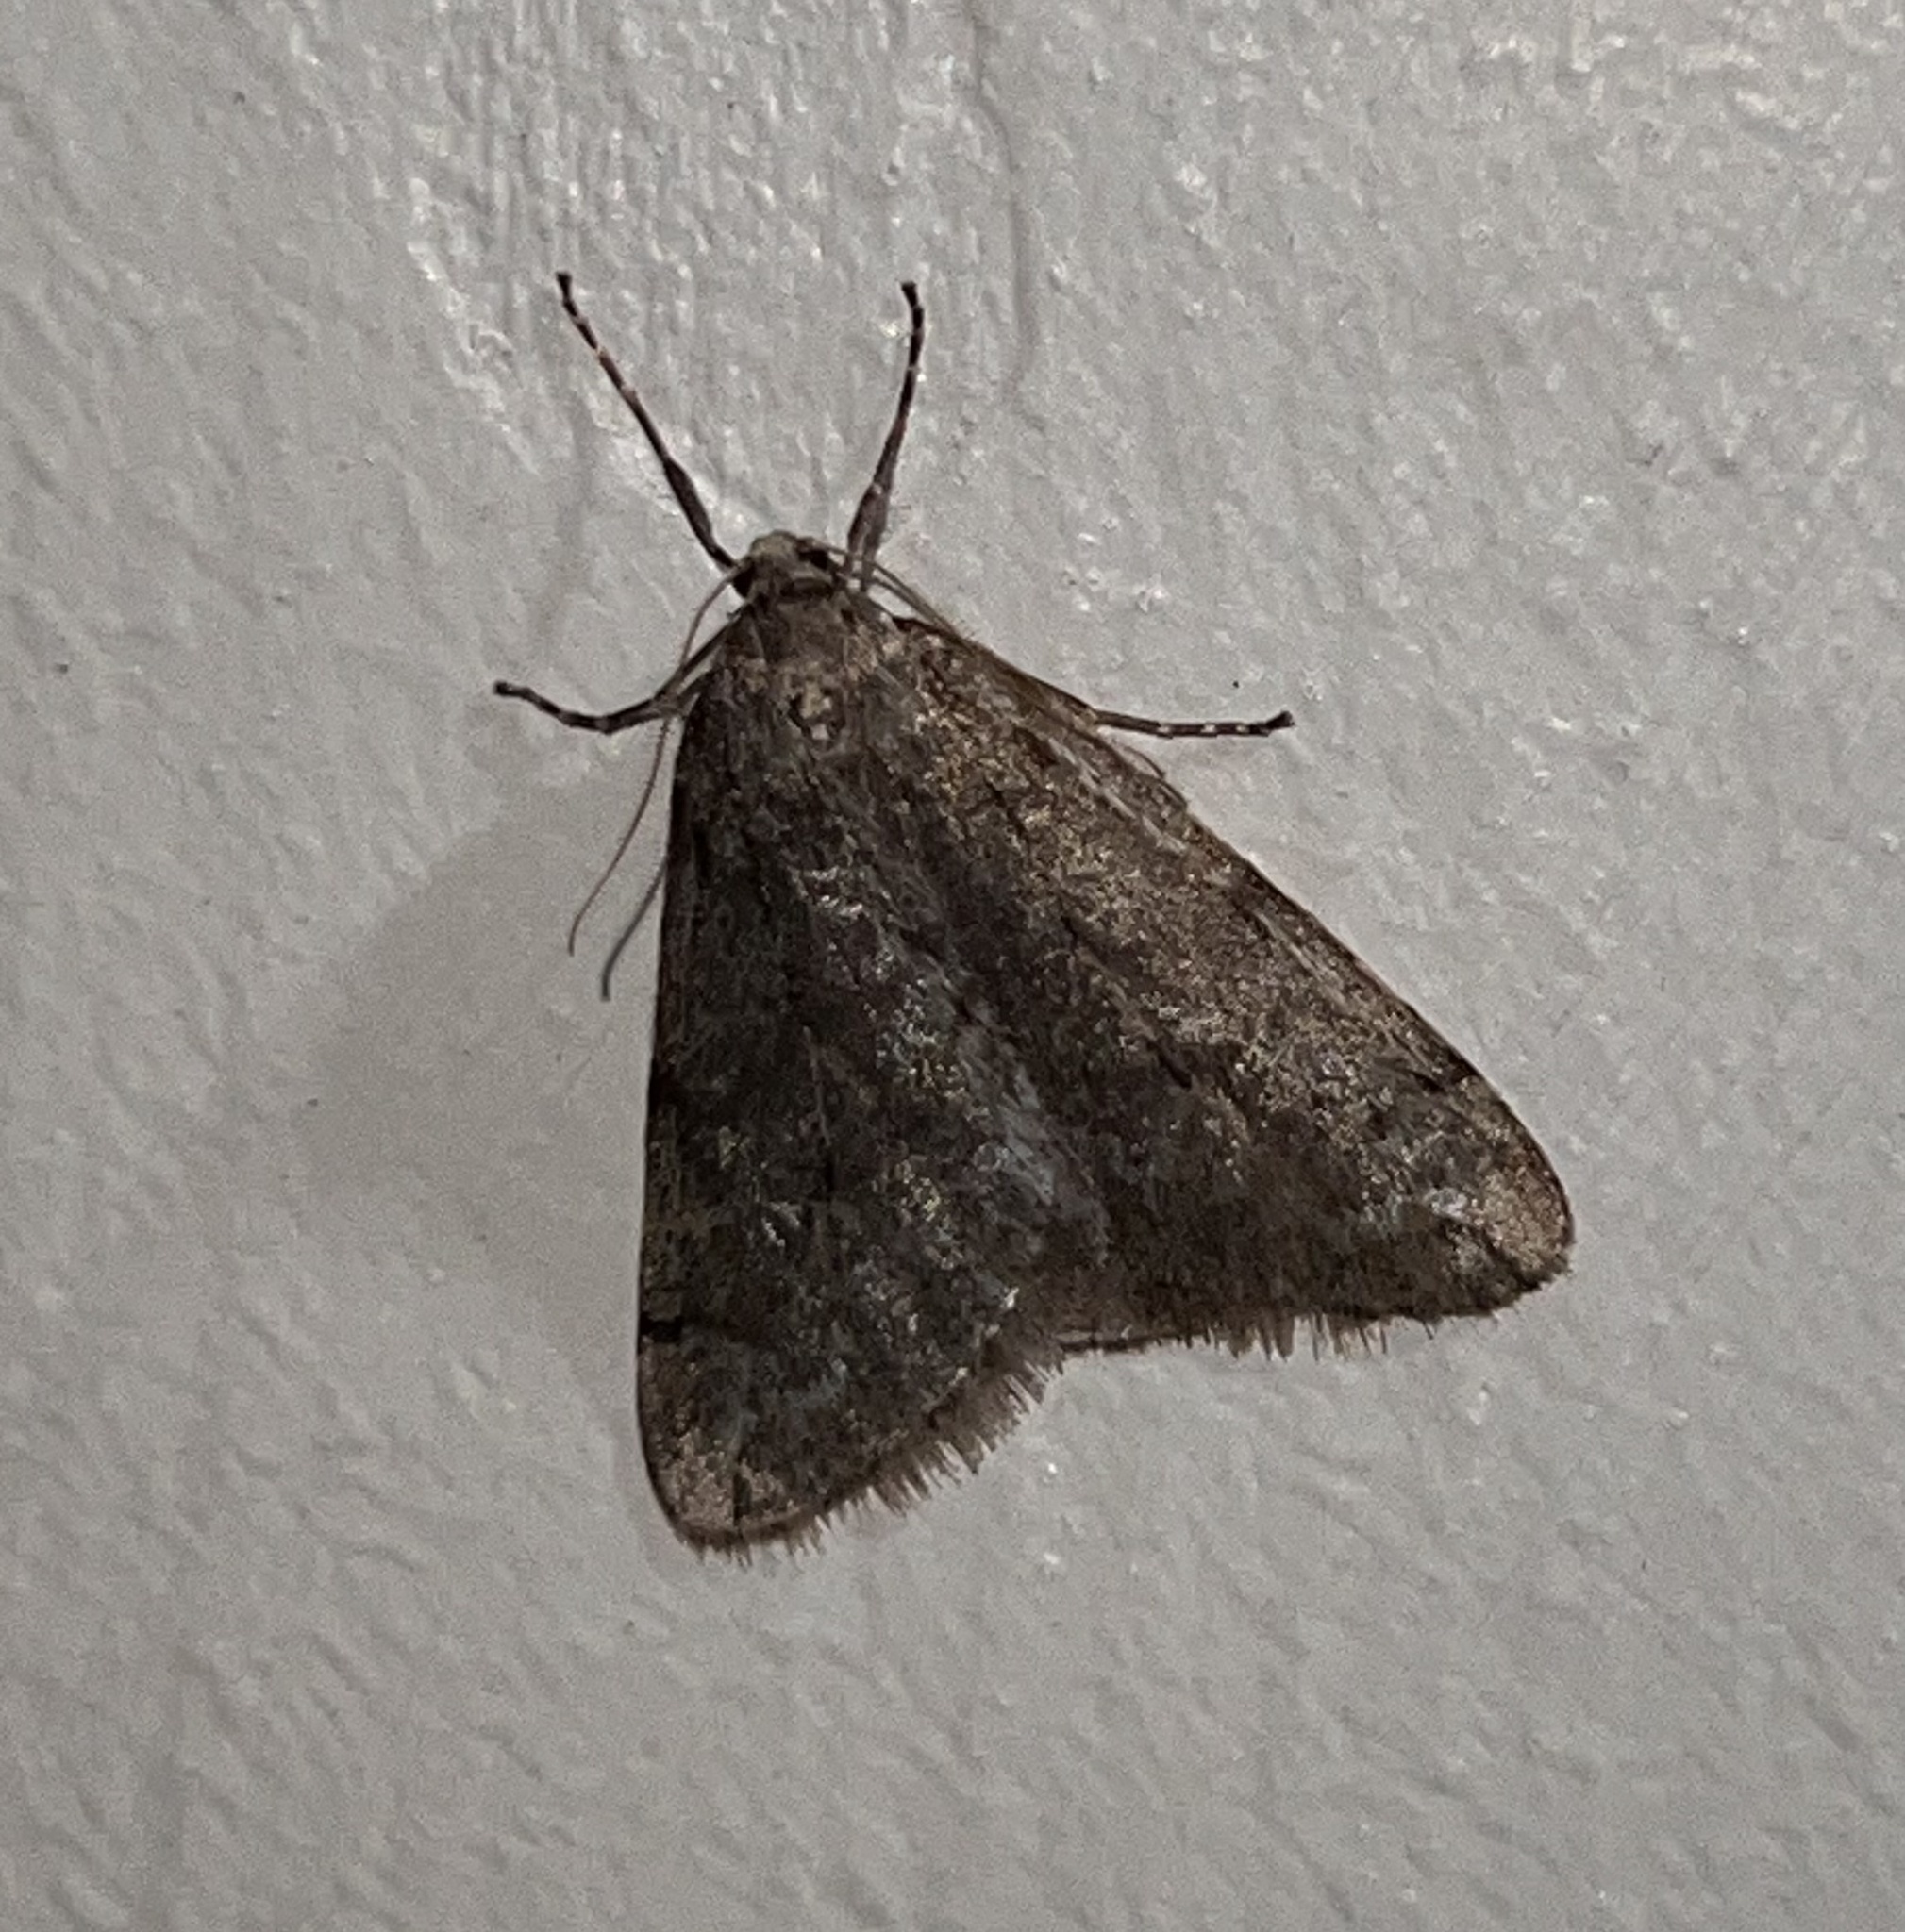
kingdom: Animalia
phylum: Arthropoda
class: Insecta
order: Lepidoptera
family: Geometridae
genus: Paleacrita
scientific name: Paleacrita vernata
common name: Spring cankerworm
